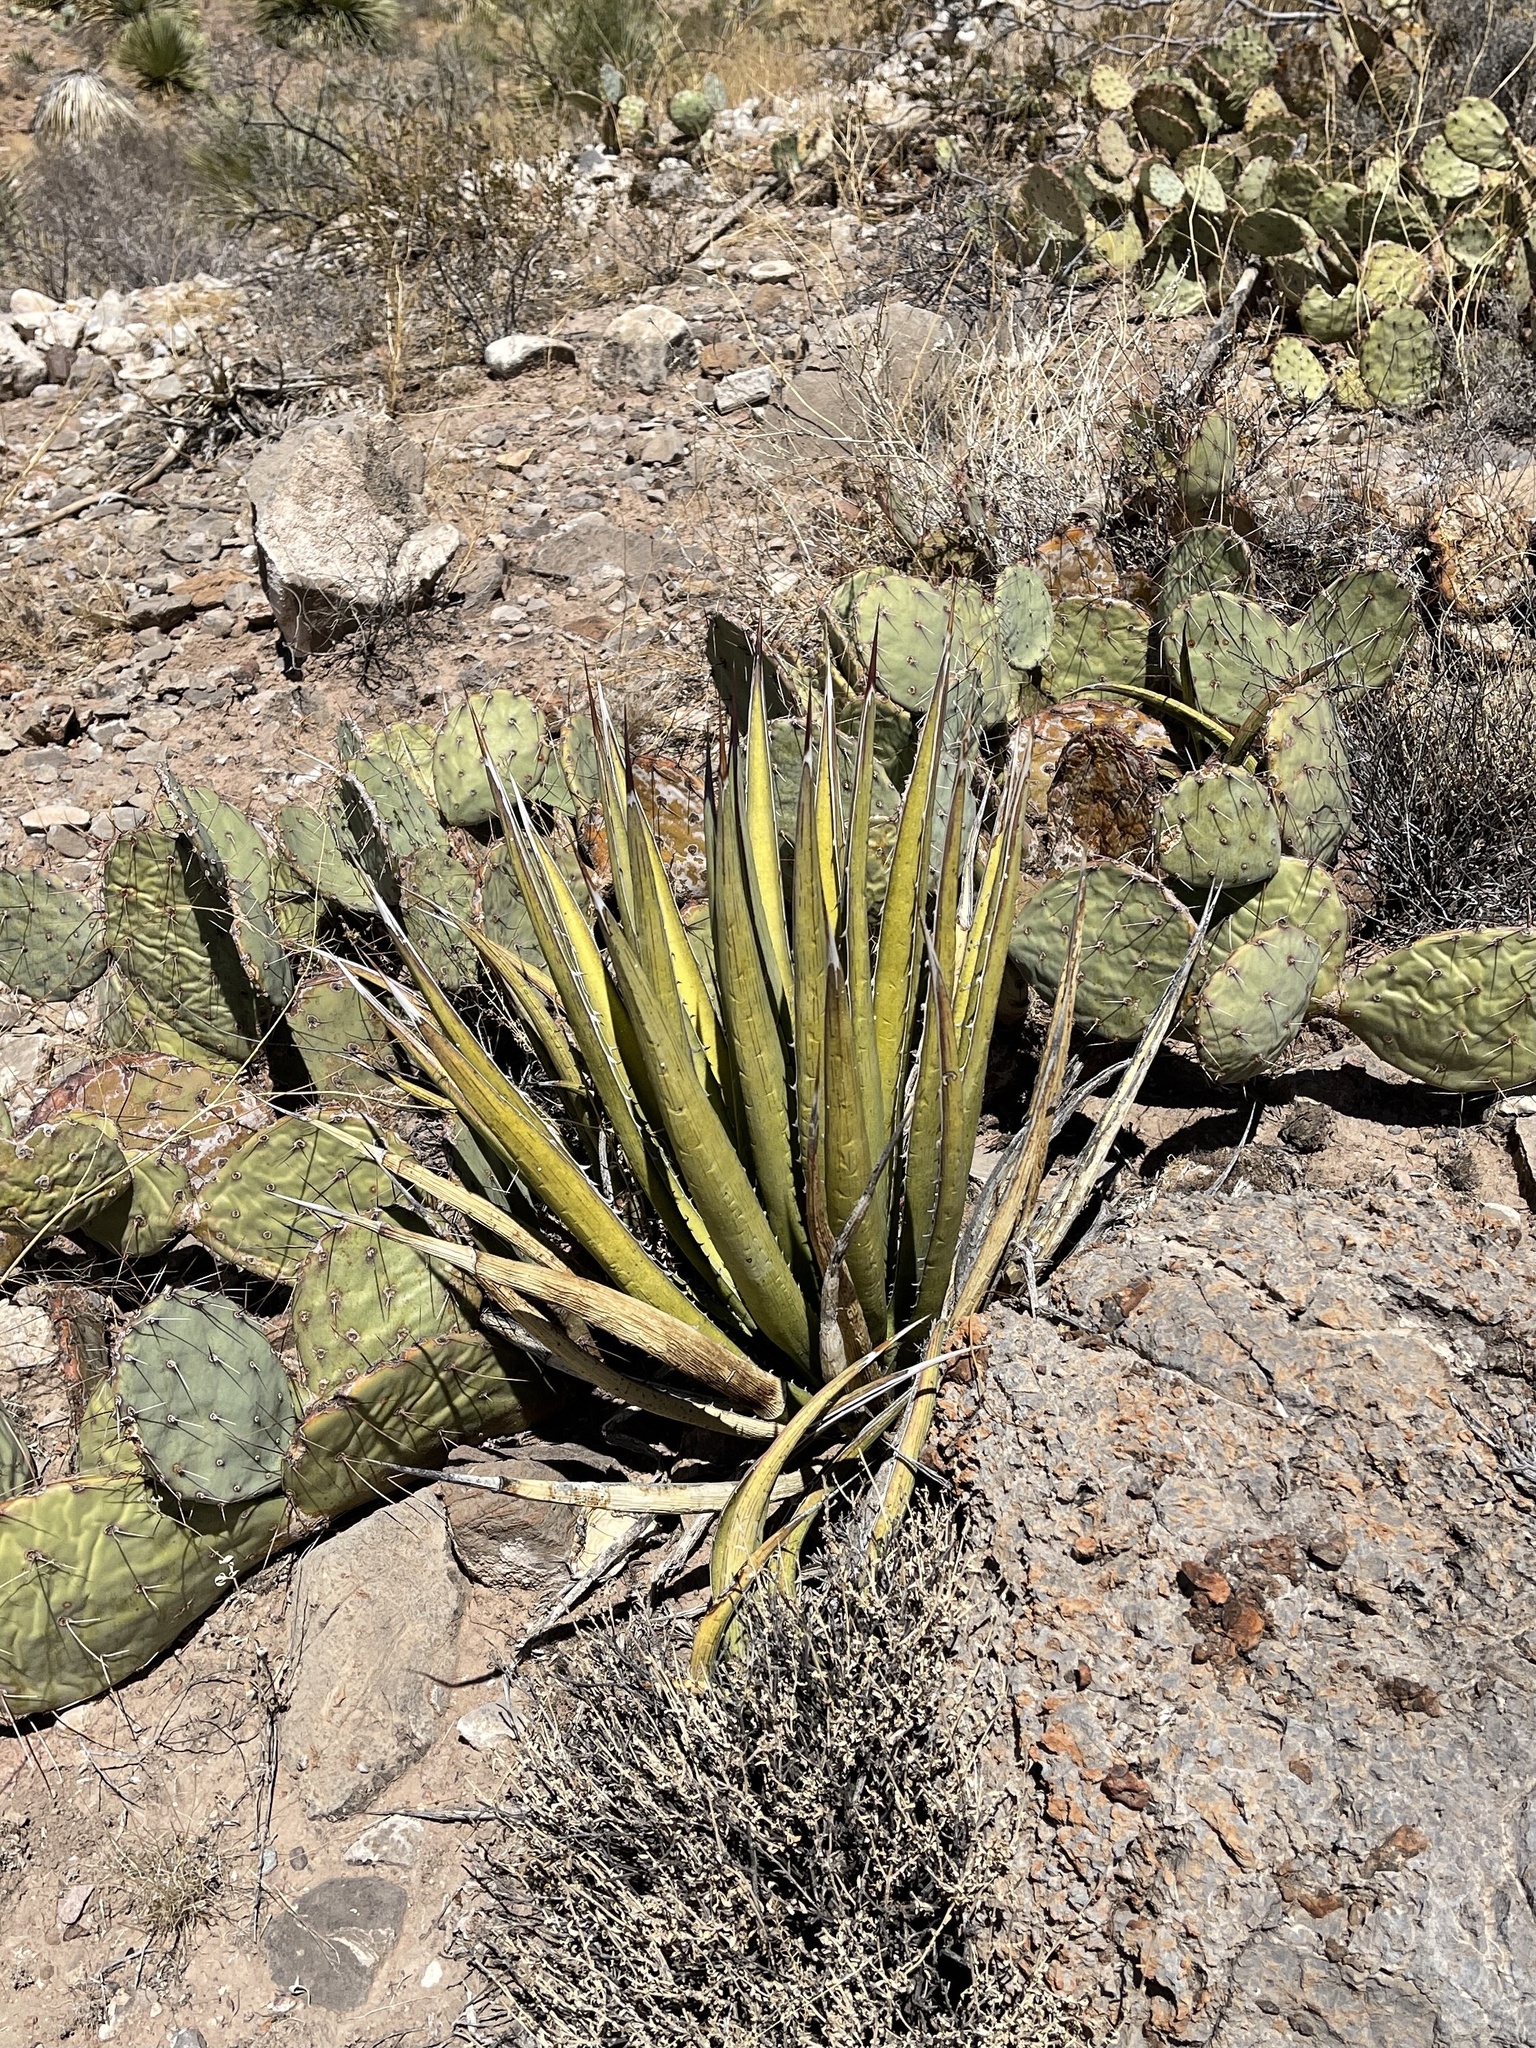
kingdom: Plantae
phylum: Tracheophyta
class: Liliopsida
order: Asparagales
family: Asparagaceae
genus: Agave
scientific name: Agave lechuguilla
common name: Lecheguilla agave
